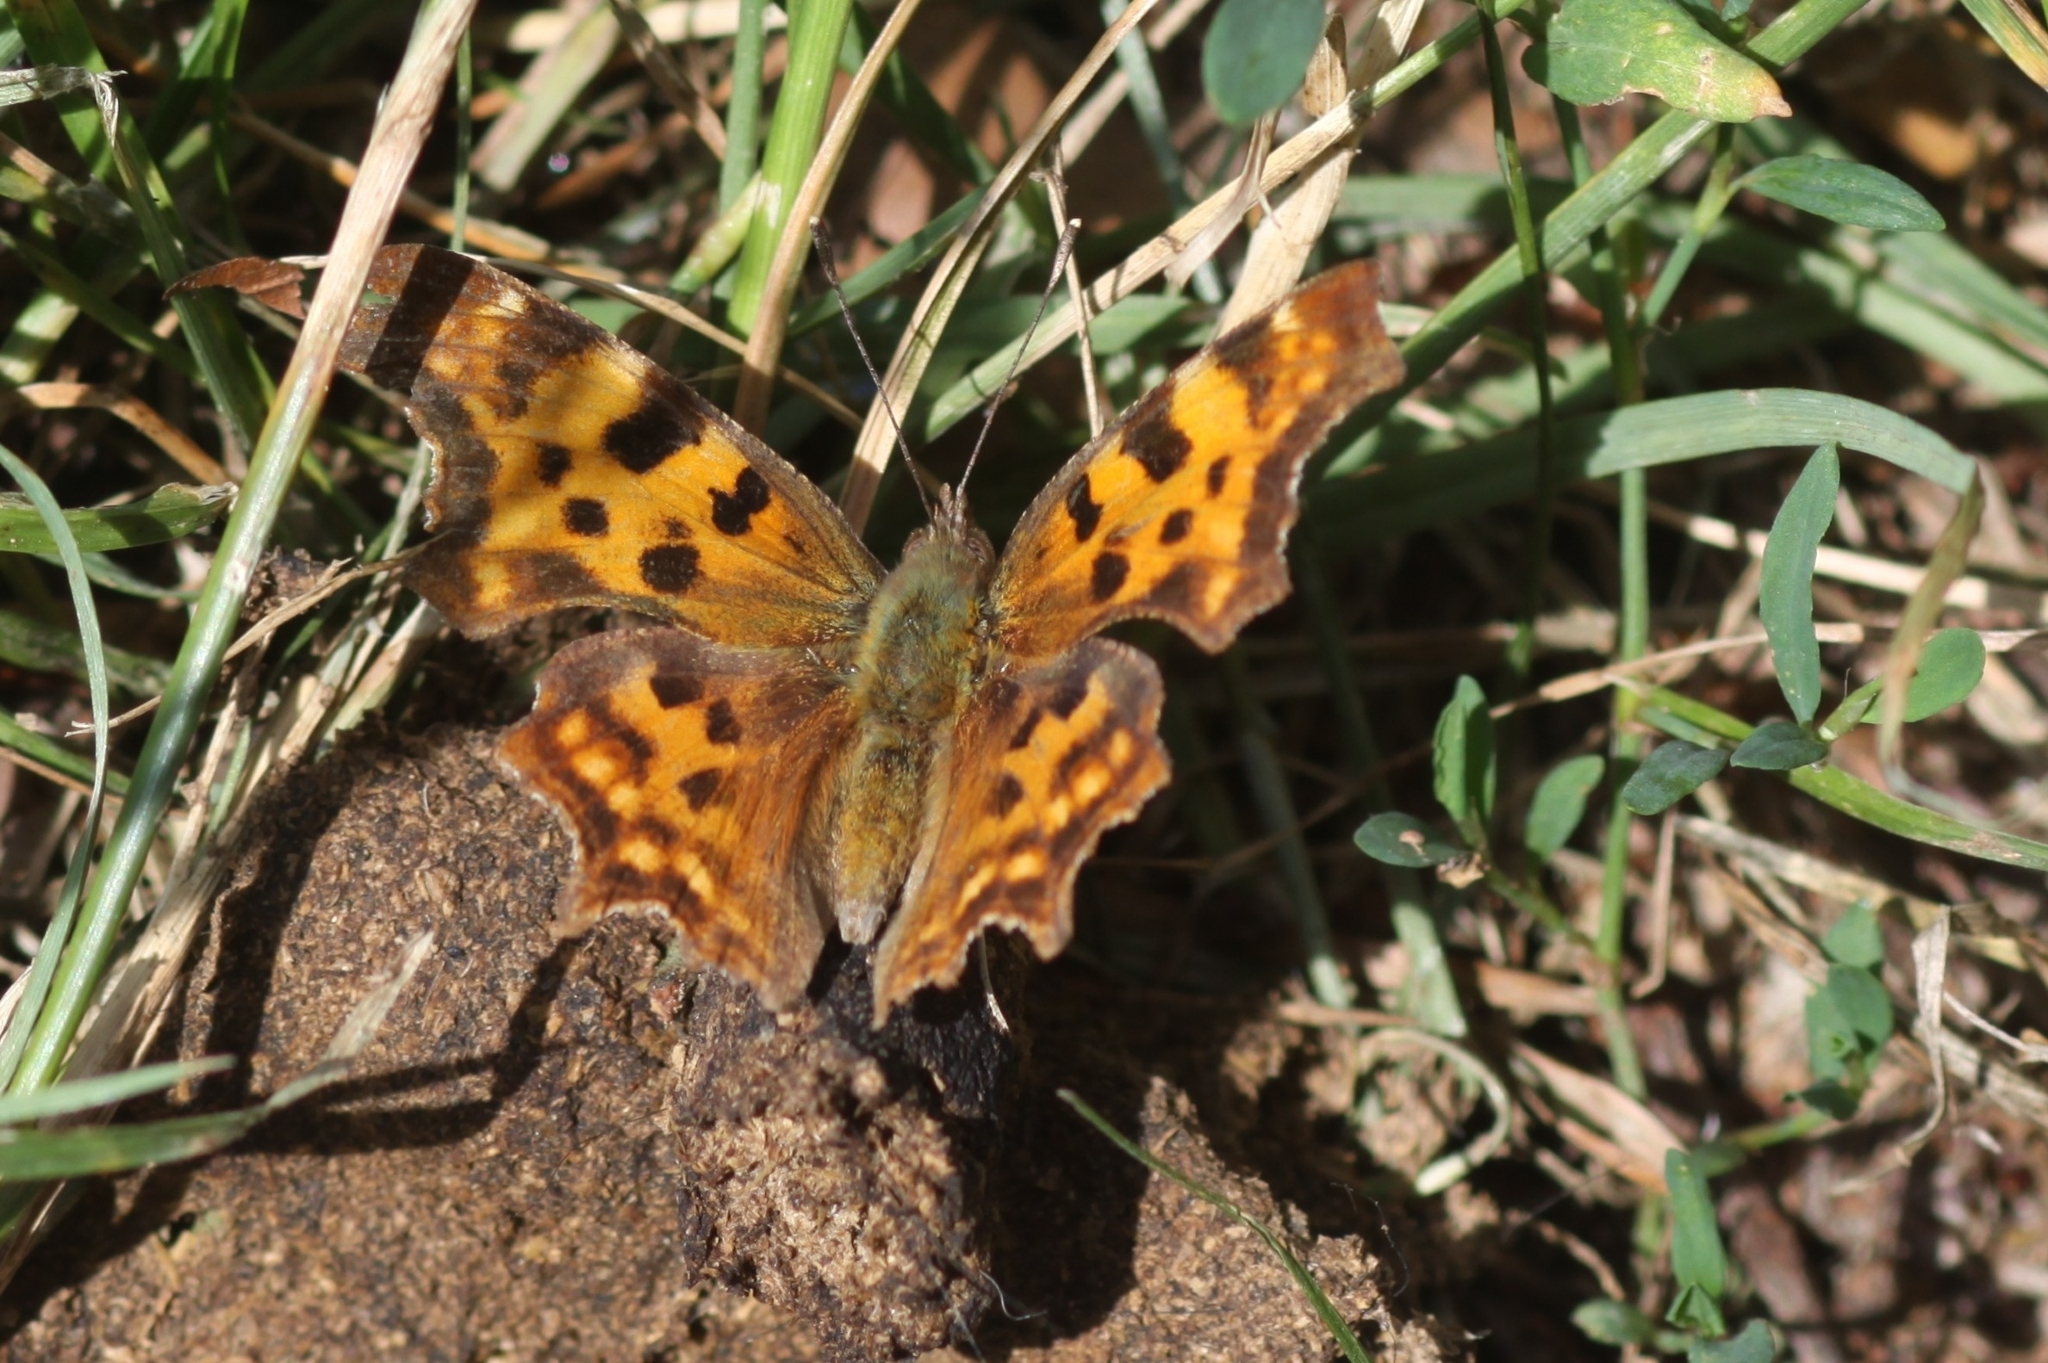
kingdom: Animalia
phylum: Arthropoda
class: Insecta
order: Lepidoptera
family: Nymphalidae
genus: Polygonia
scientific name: Polygonia c-album
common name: Comma
